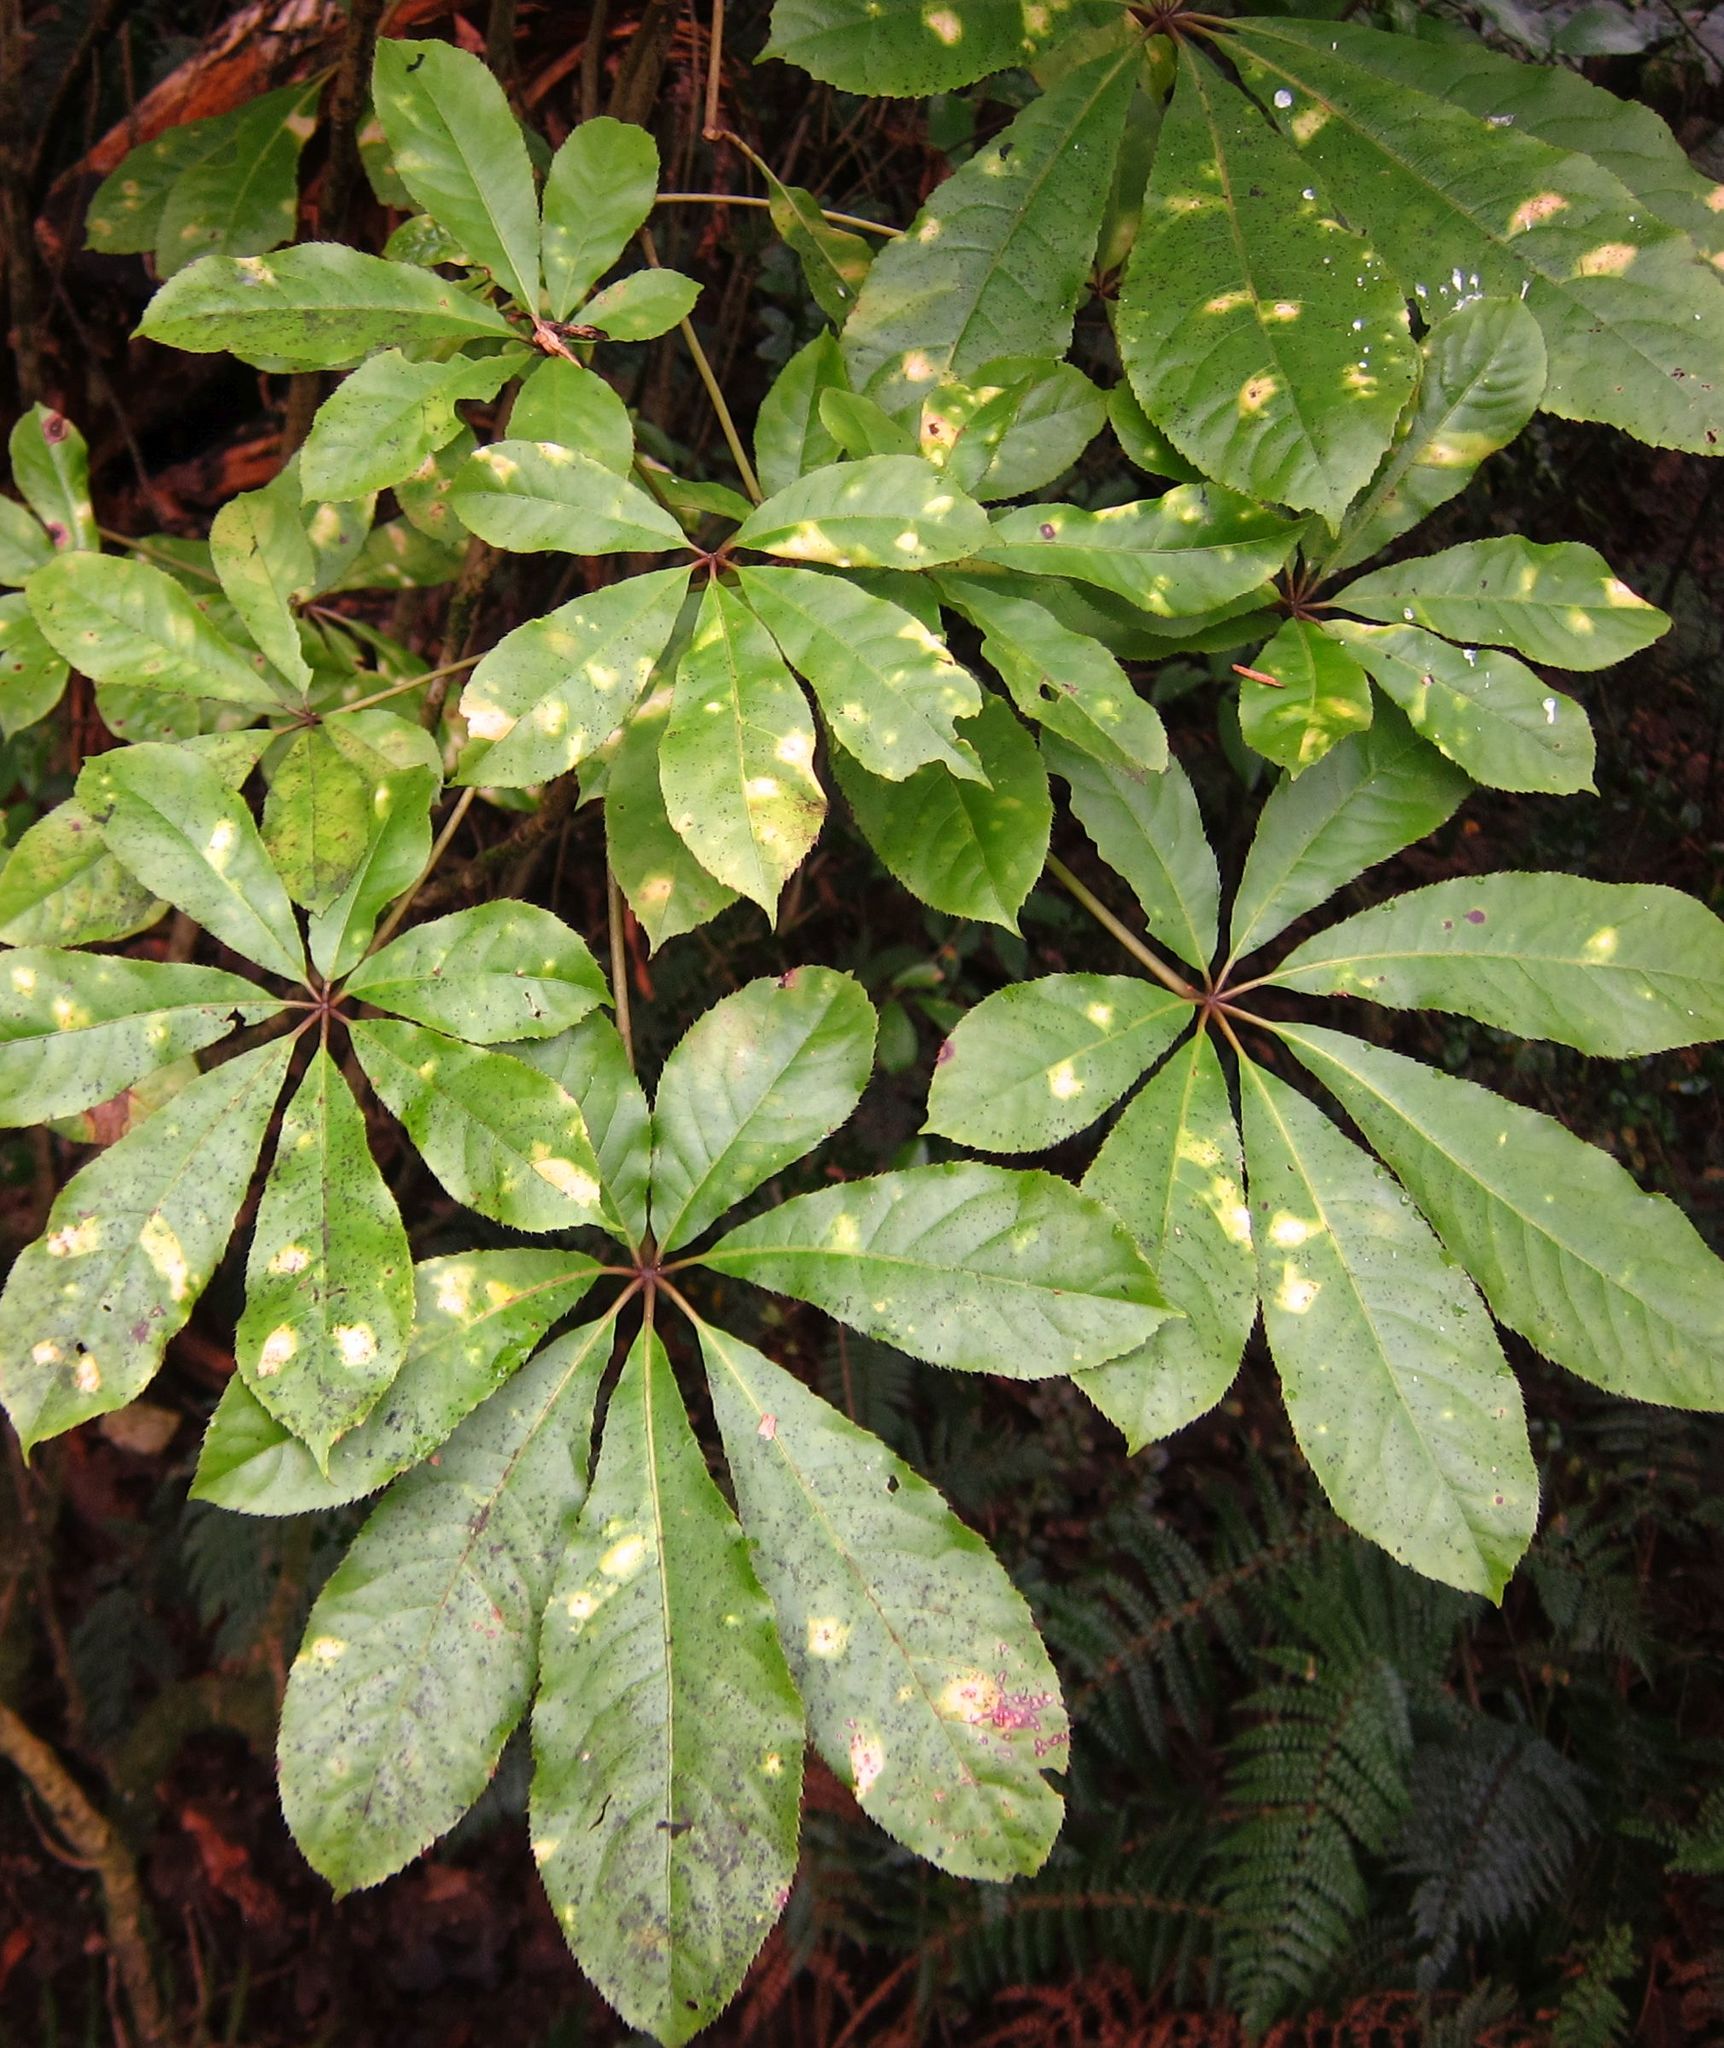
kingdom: Plantae
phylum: Tracheophyta
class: Magnoliopsida
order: Apiales
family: Araliaceae
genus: Schefflera
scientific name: Schefflera digitata
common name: Pate
